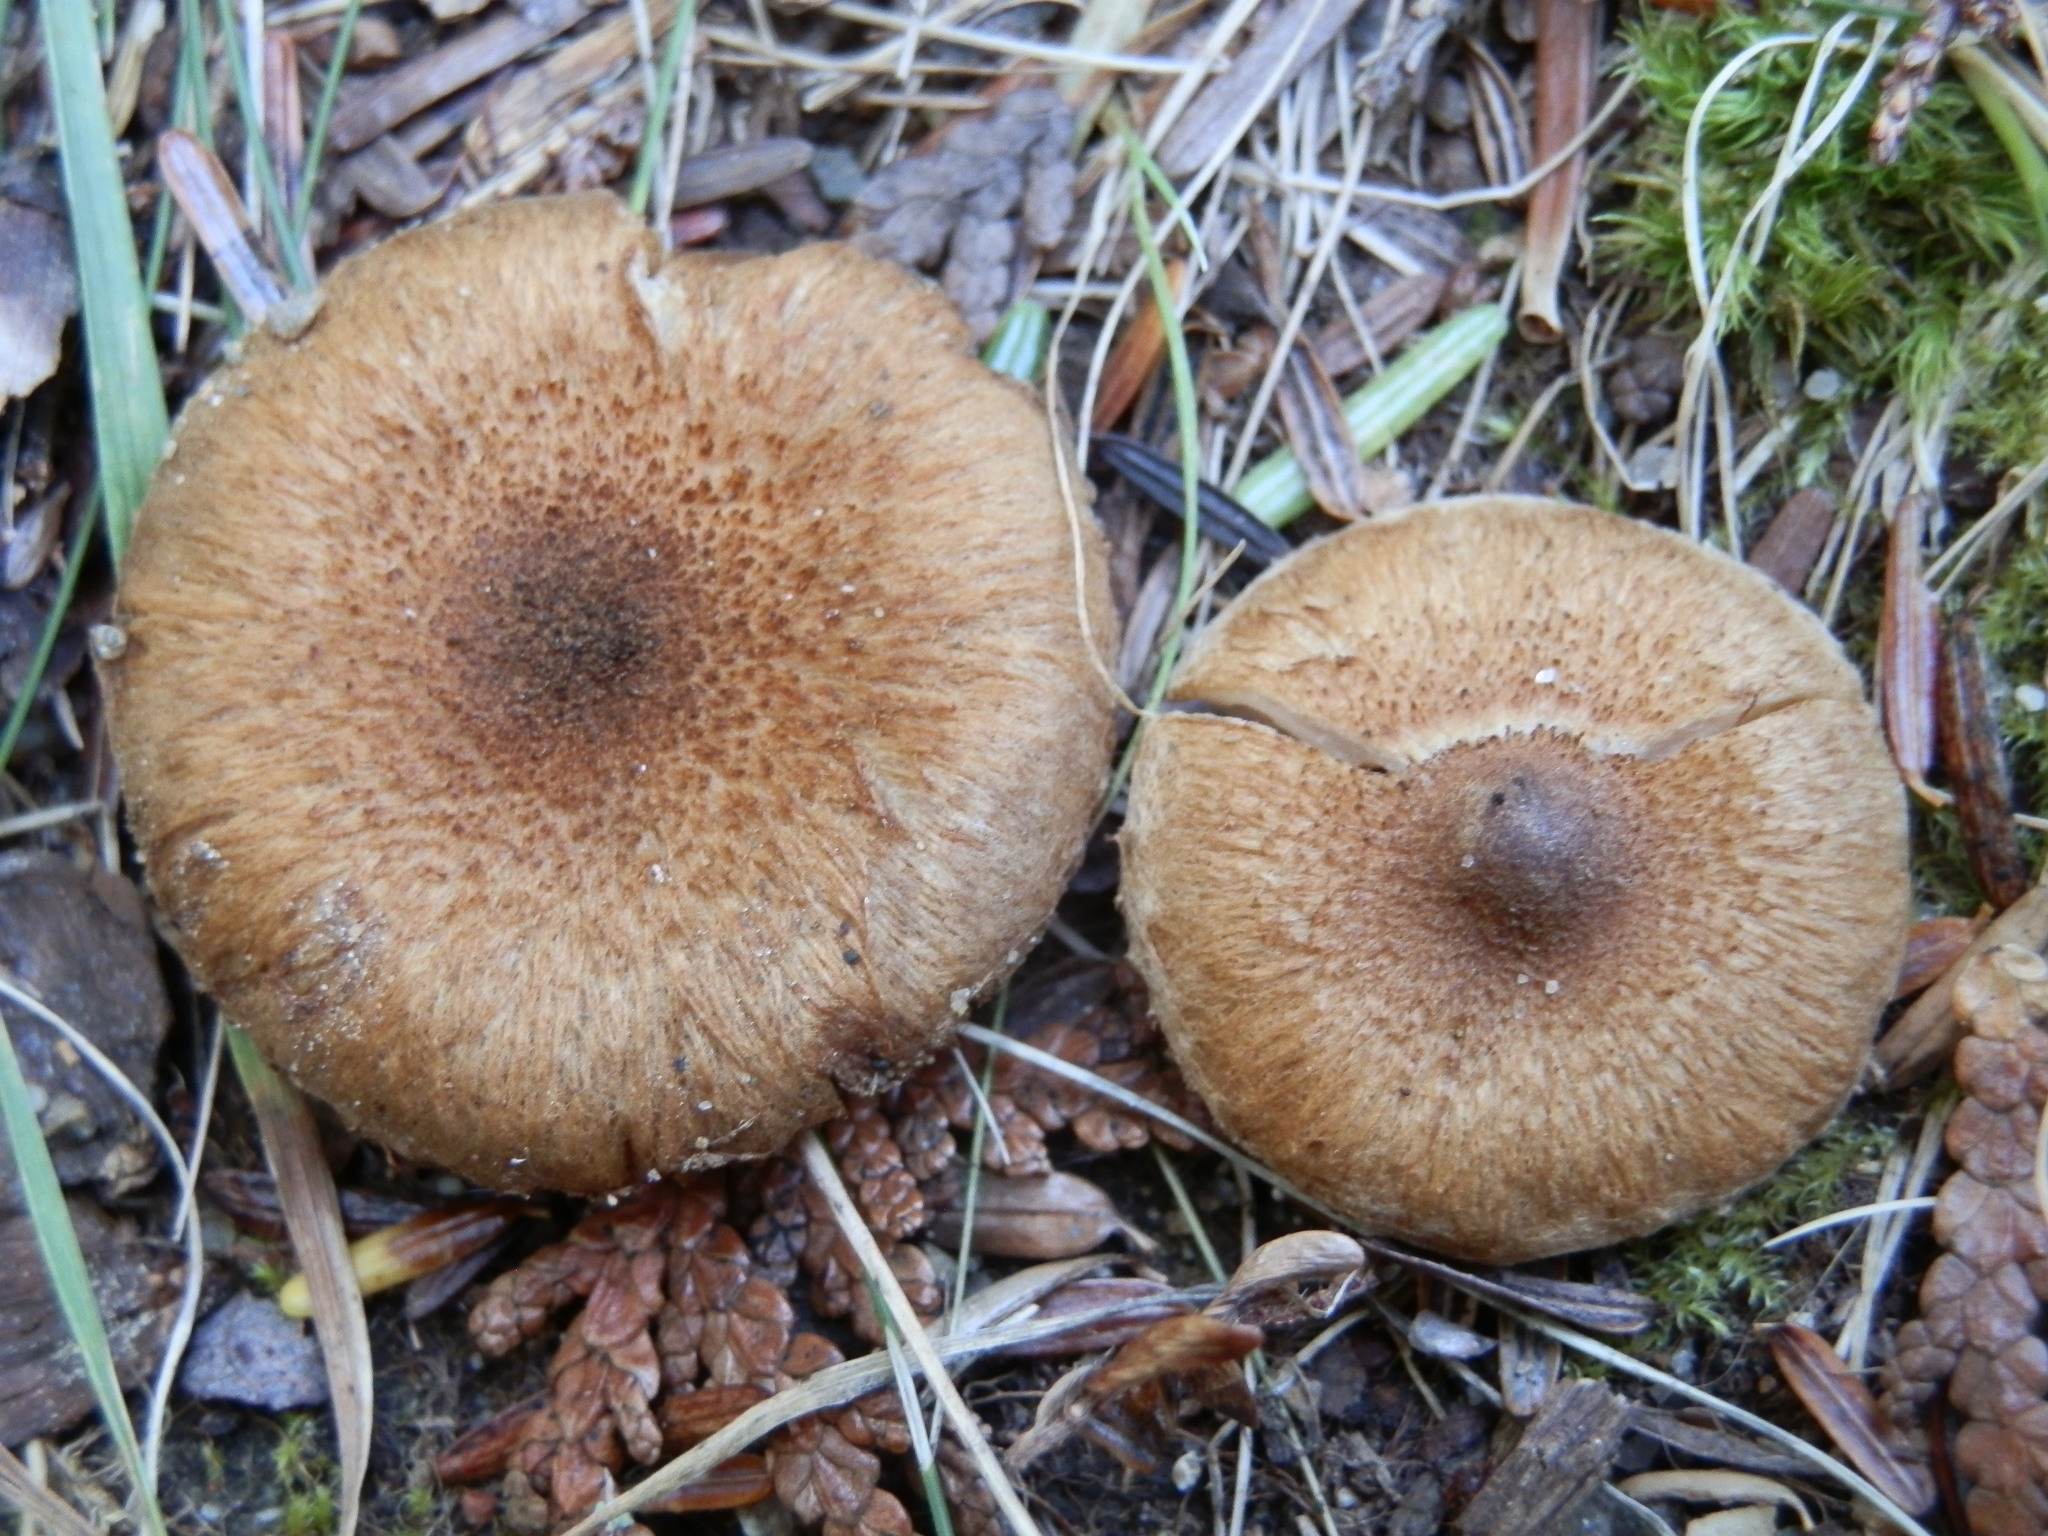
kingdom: Fungi
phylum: Basidiomycota
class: Agaricomycetes
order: Agaricales
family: Inocybaceae
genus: Inocybe
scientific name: Inocybe dulcamara
